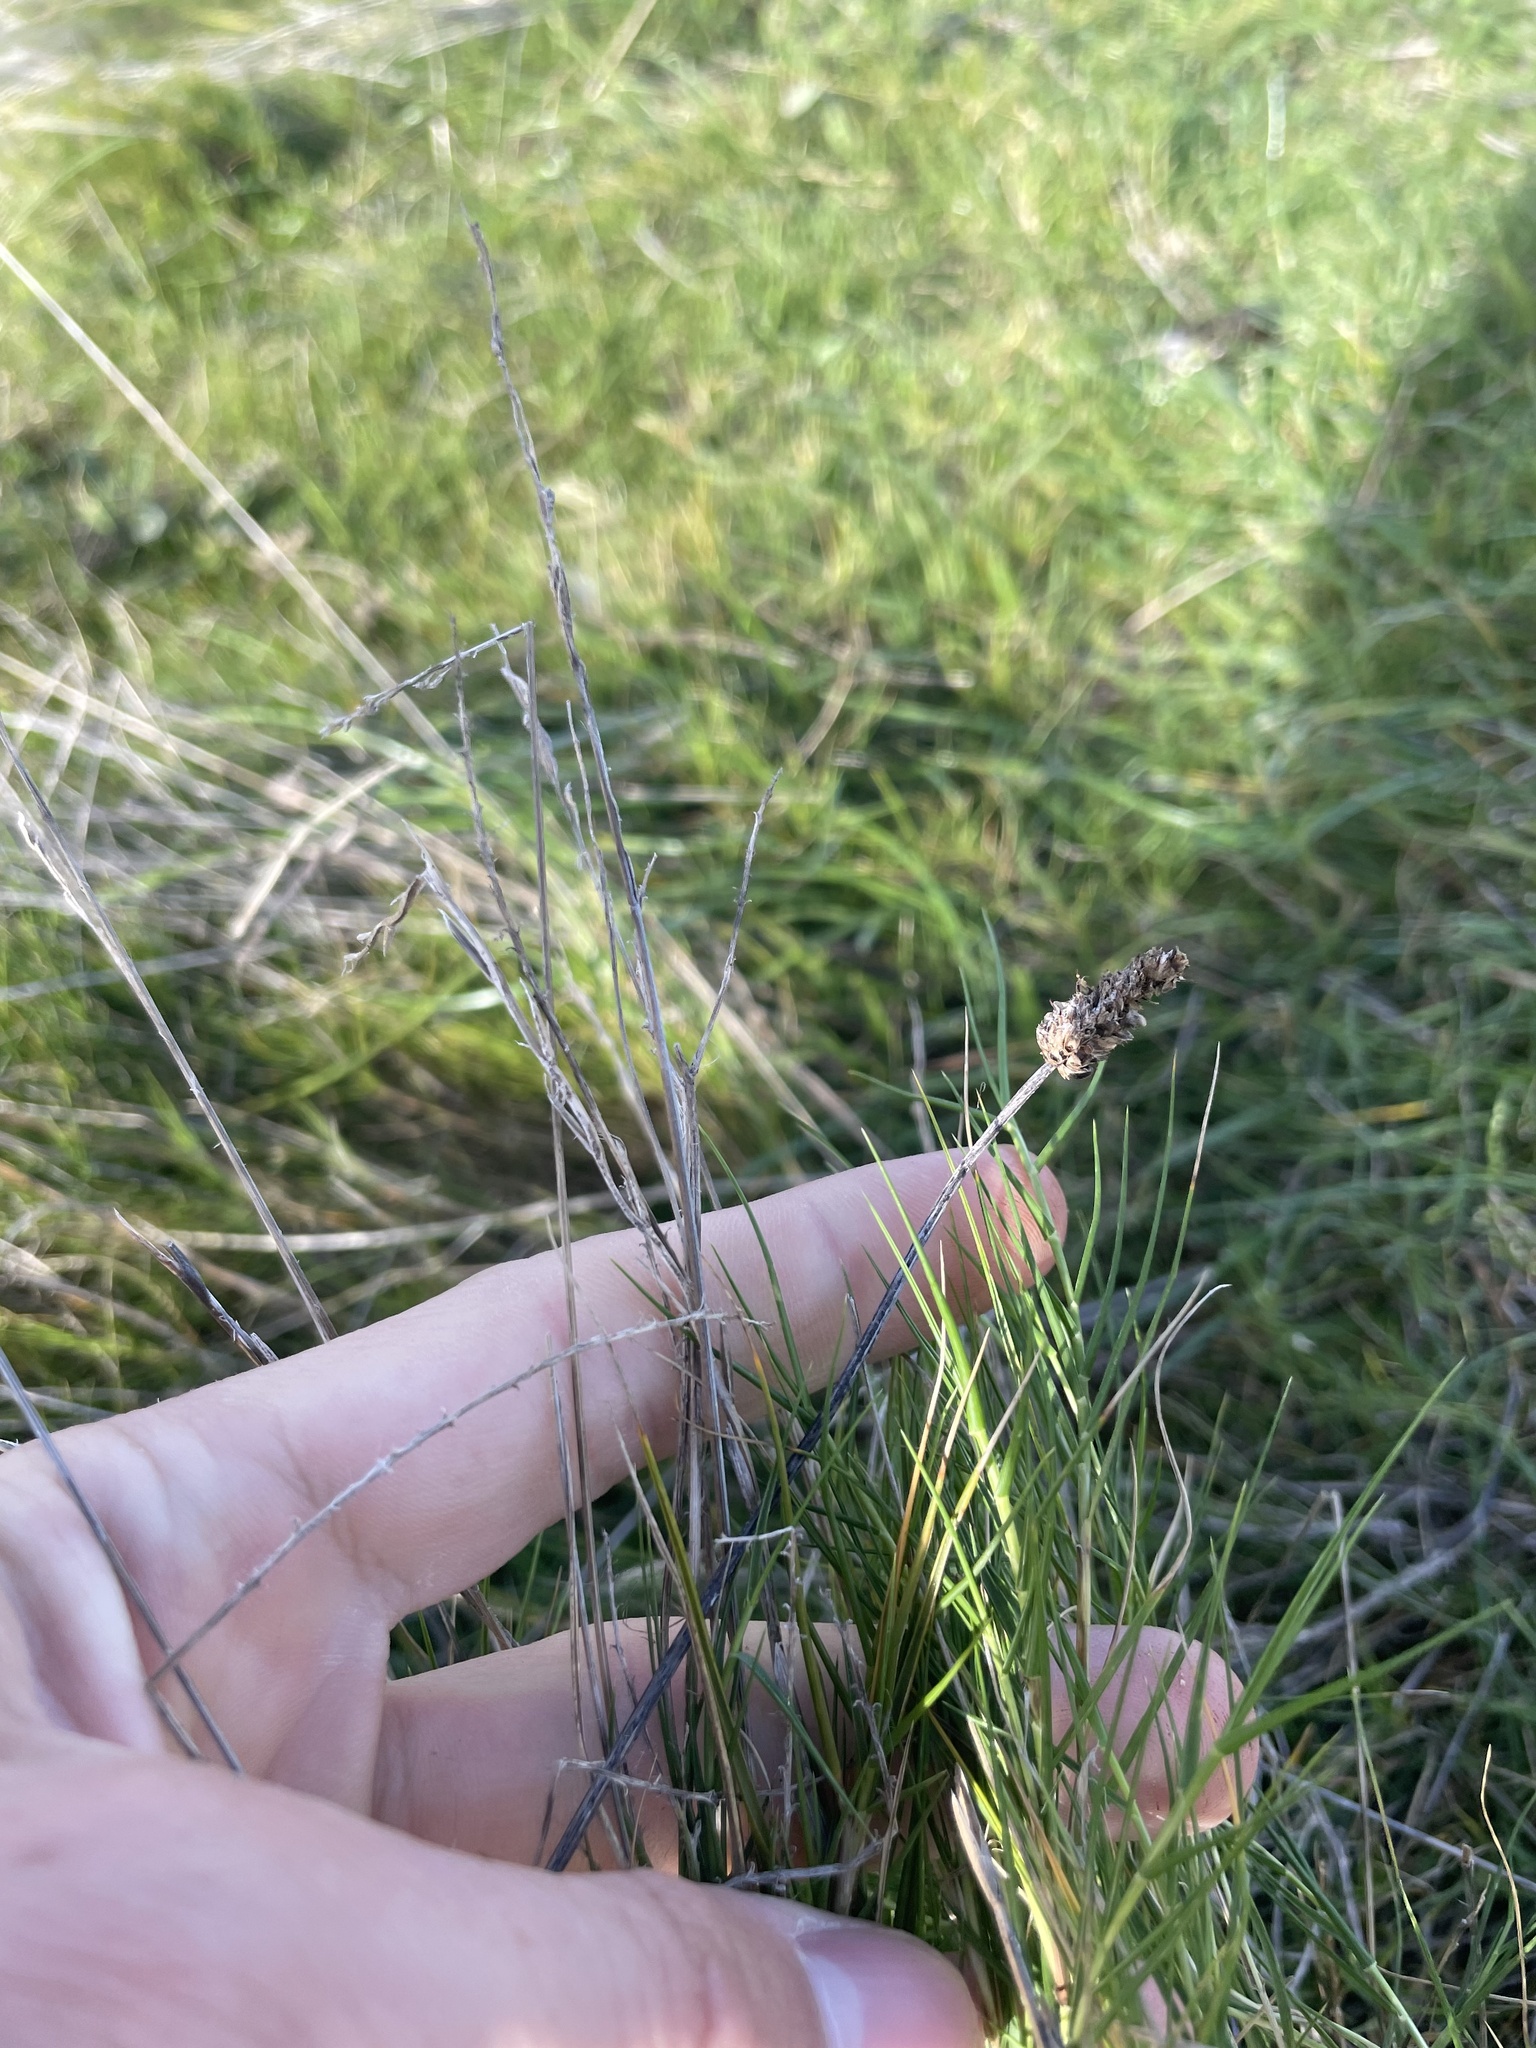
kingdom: Plantae
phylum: Tracheophyta
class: Liliopsida
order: Poales
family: Poaceae
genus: Sporobolus
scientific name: Sporobolus virginicus
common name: Beach dropseed
